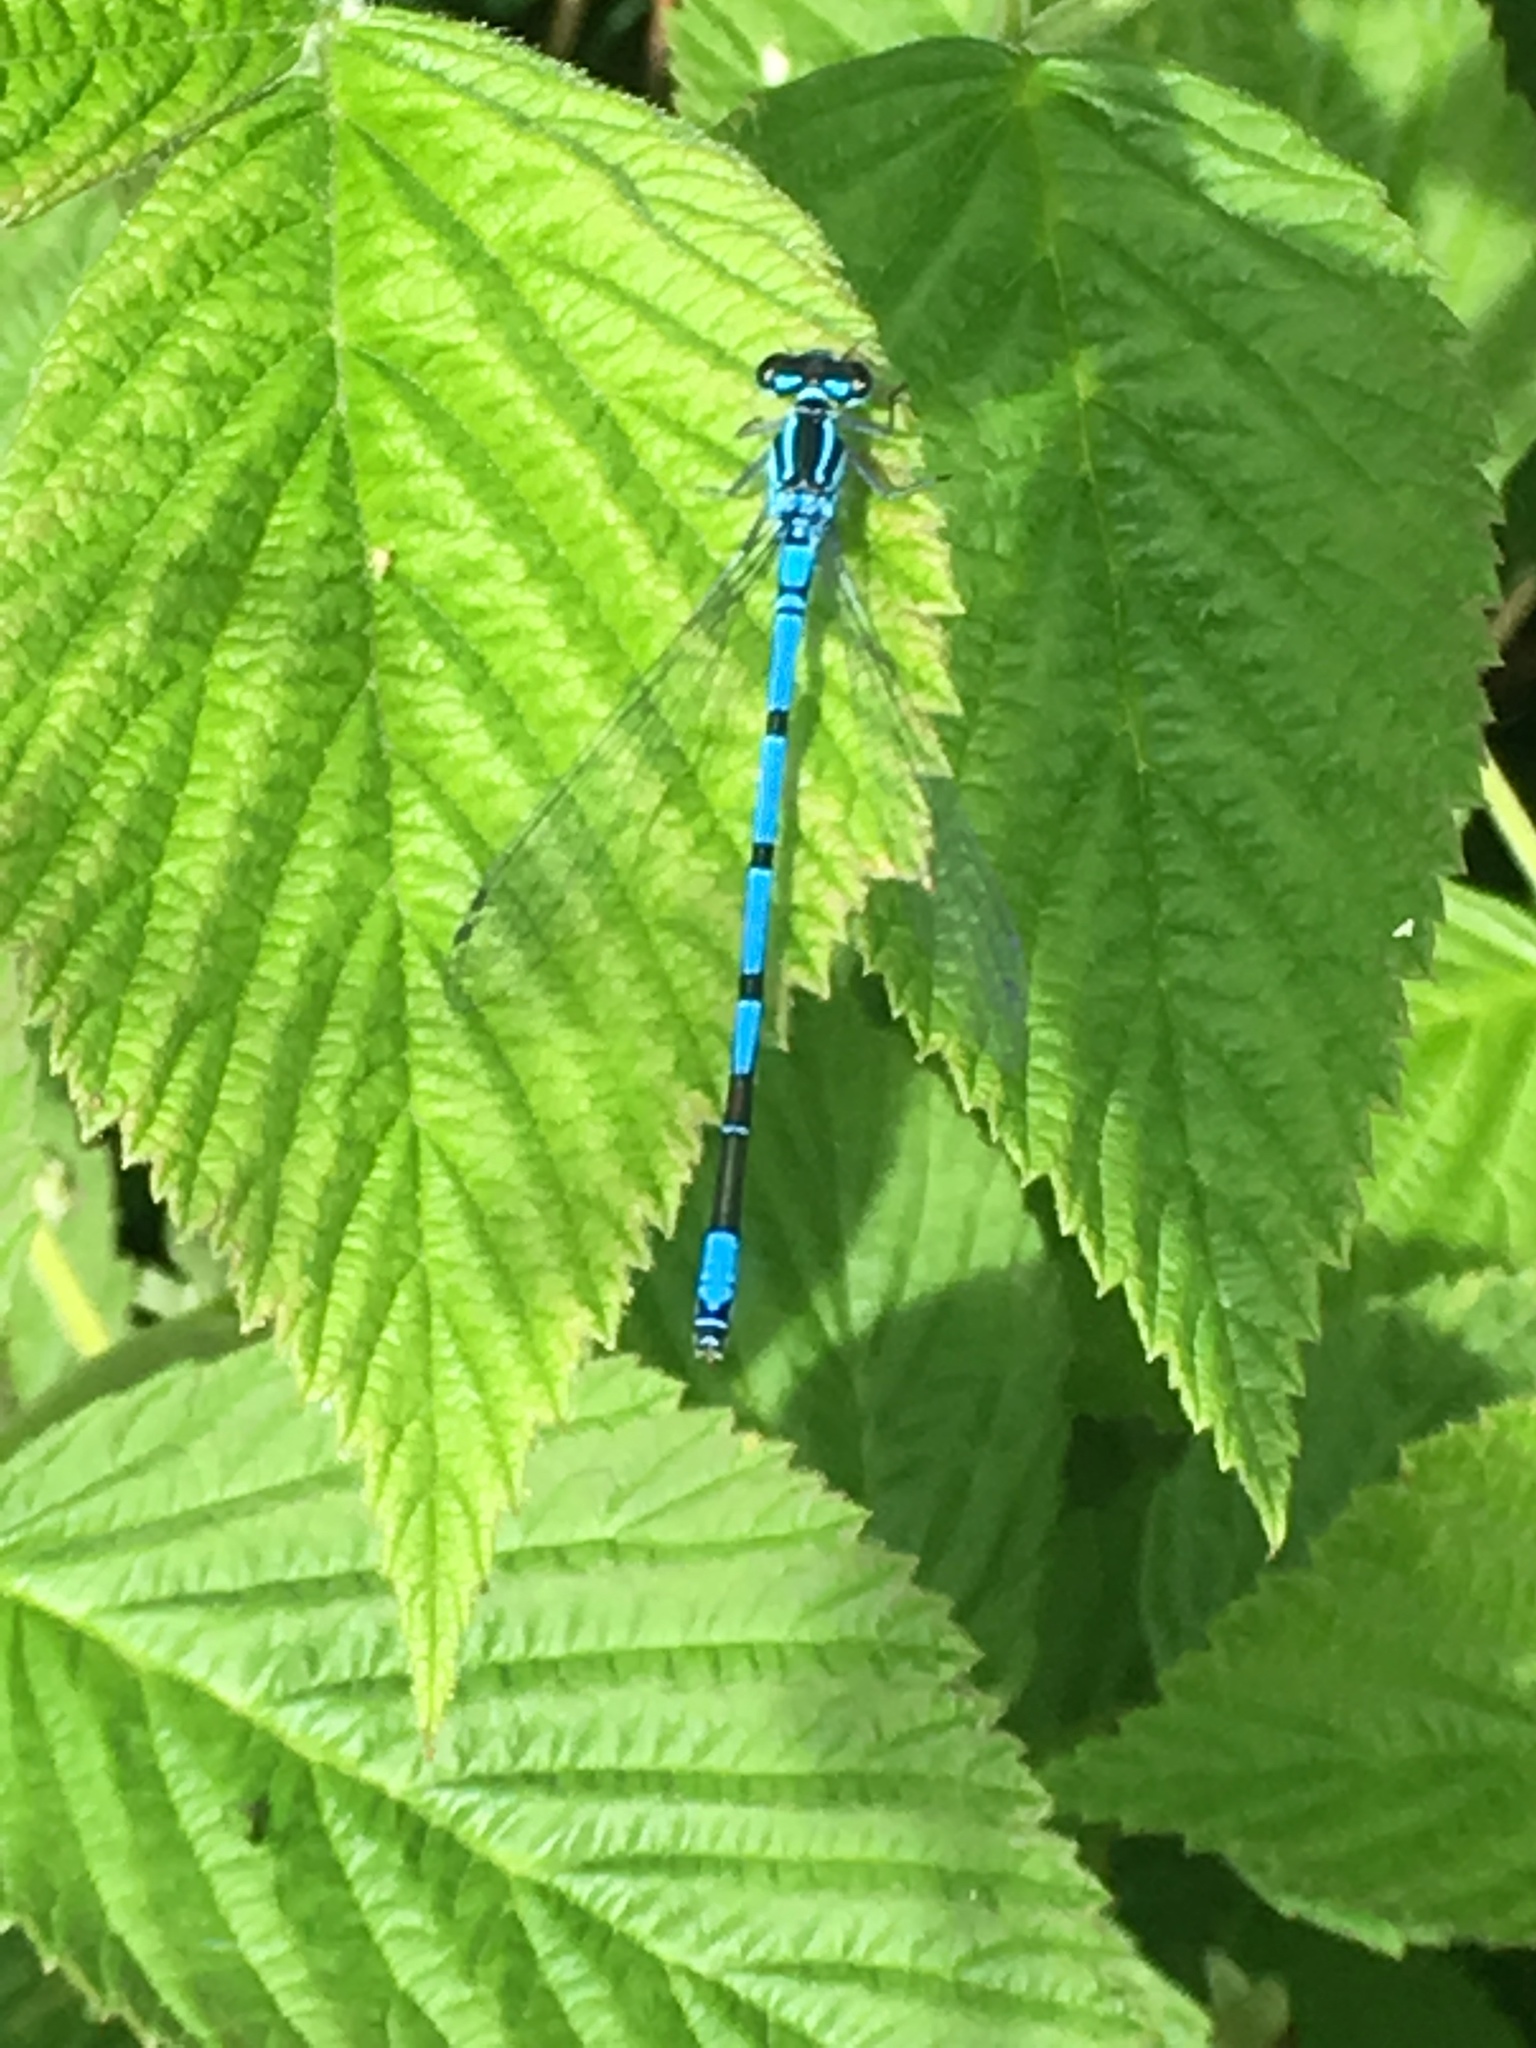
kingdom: Animalia
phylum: Arthropoda
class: Insecta
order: Odonata
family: Coenagrionidae
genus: Coenagrion
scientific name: Coenagrion puella
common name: Azure damselfly
